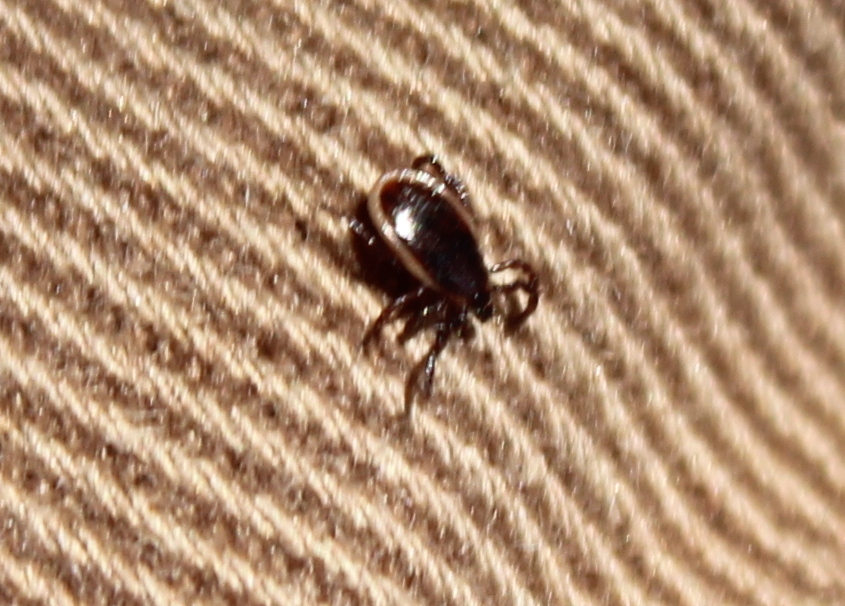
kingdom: Animalia
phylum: Arthropoda
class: Arachnida
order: Ixodida
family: Ixodidae
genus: Ixodes
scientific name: Ixodes scapularis
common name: Black legged tick
